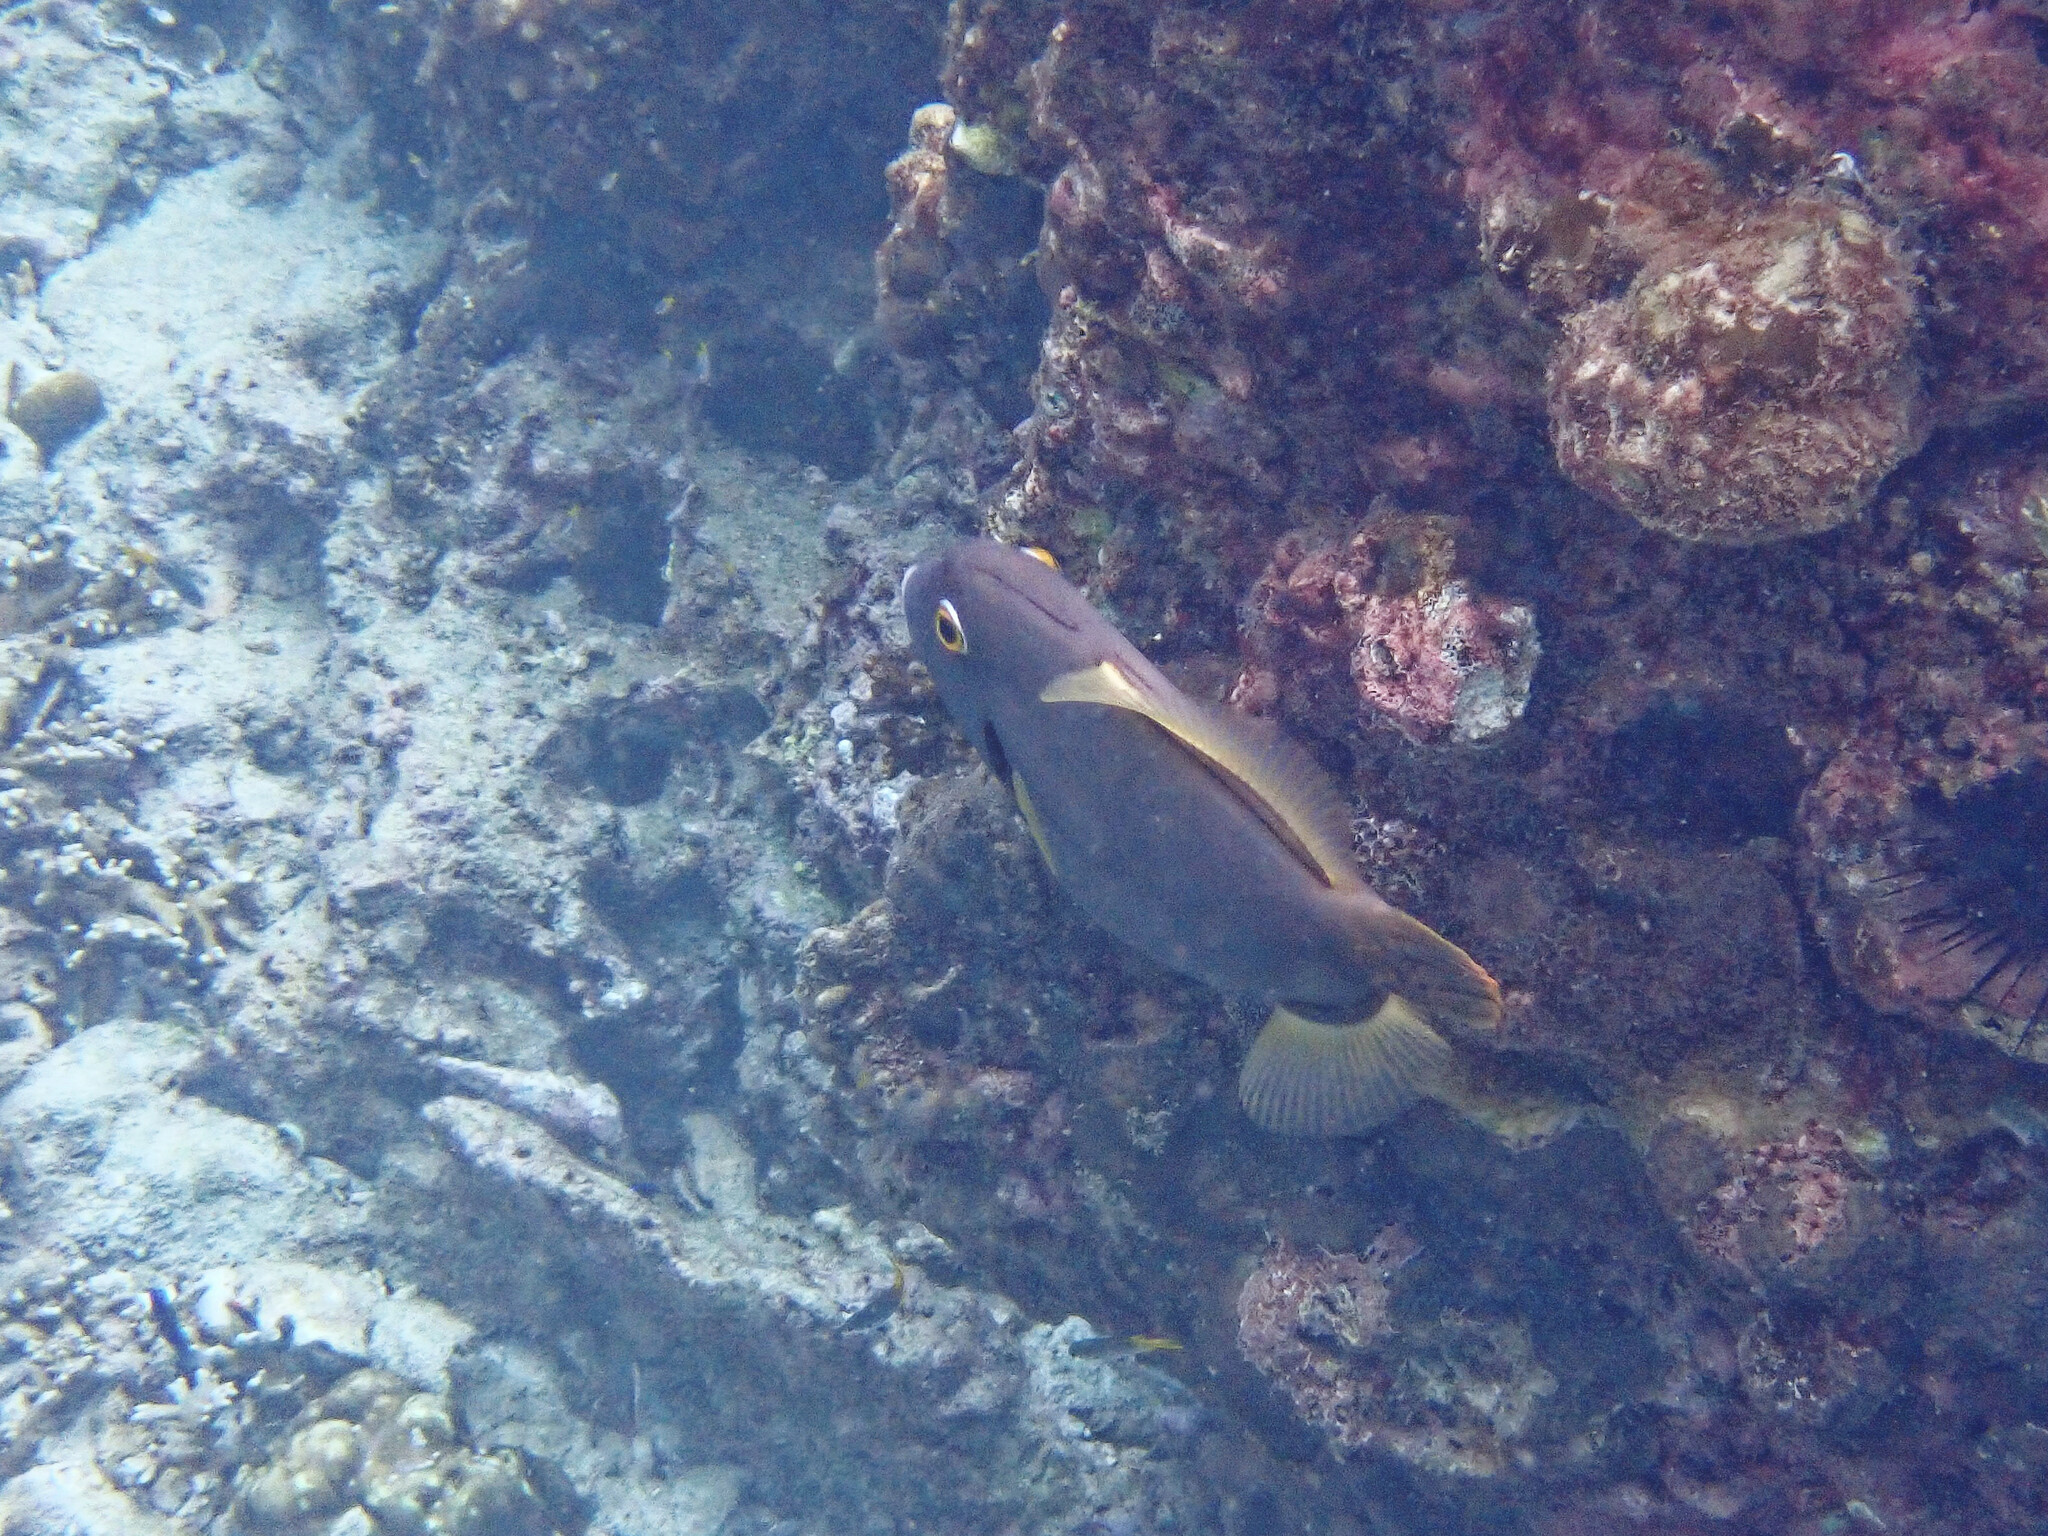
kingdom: Animalia
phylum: Chordata
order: Tetraodontiformes
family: Monacanthidae
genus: Cantherhines
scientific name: Cantherhines dumerilii
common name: Barred filefish
